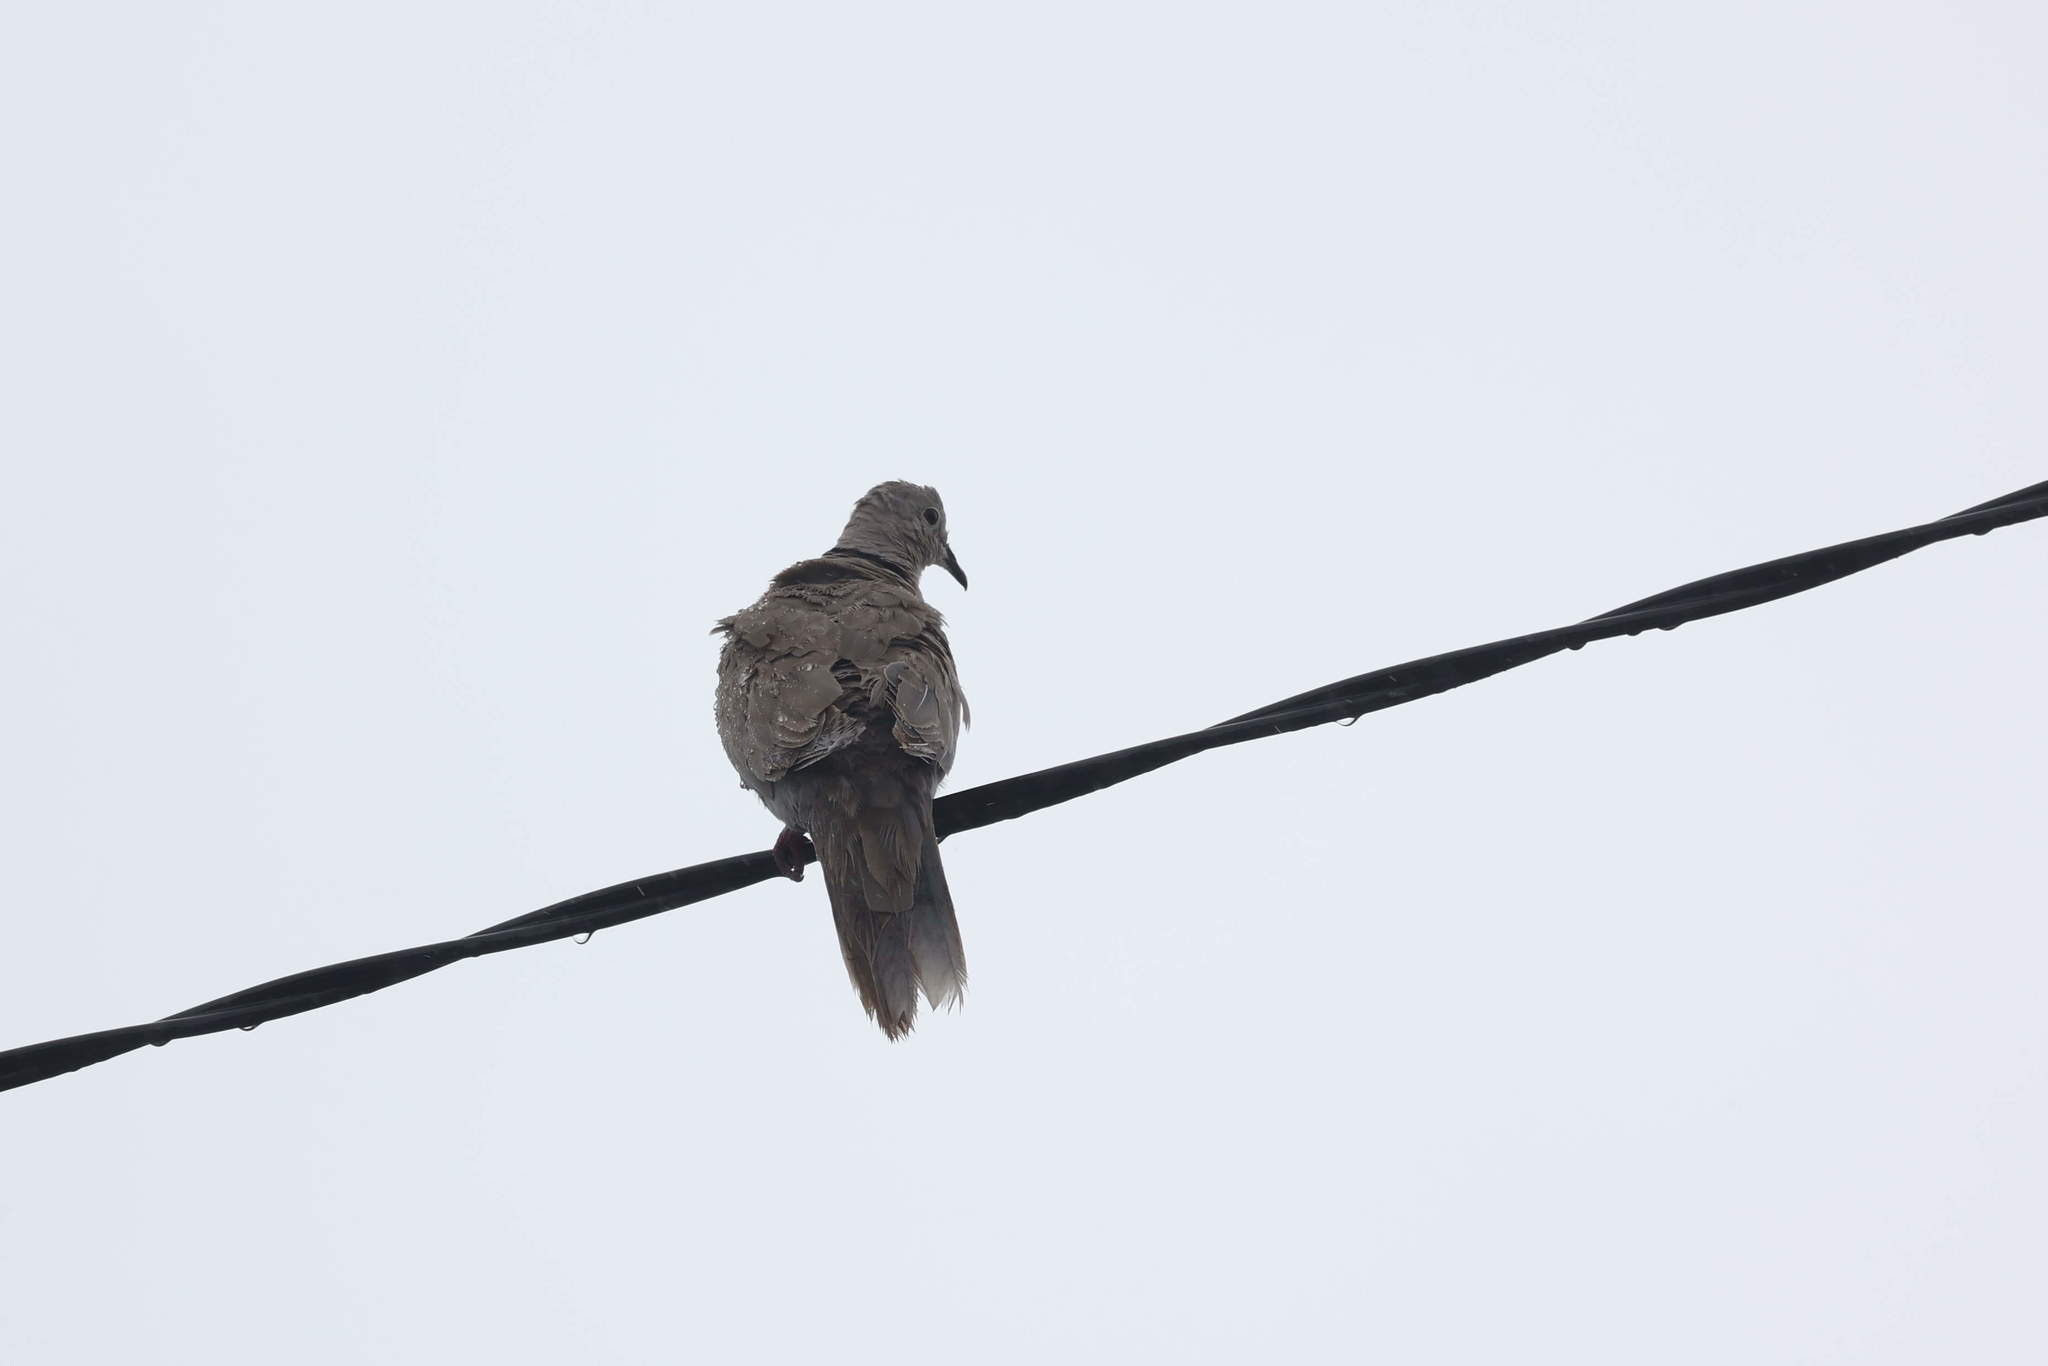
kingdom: Animalia
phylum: Chordata
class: Aves
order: Columbiformes
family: Columbidae
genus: Streptopelia
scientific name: Streptopelia decaocto
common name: Eurasian collared dove
